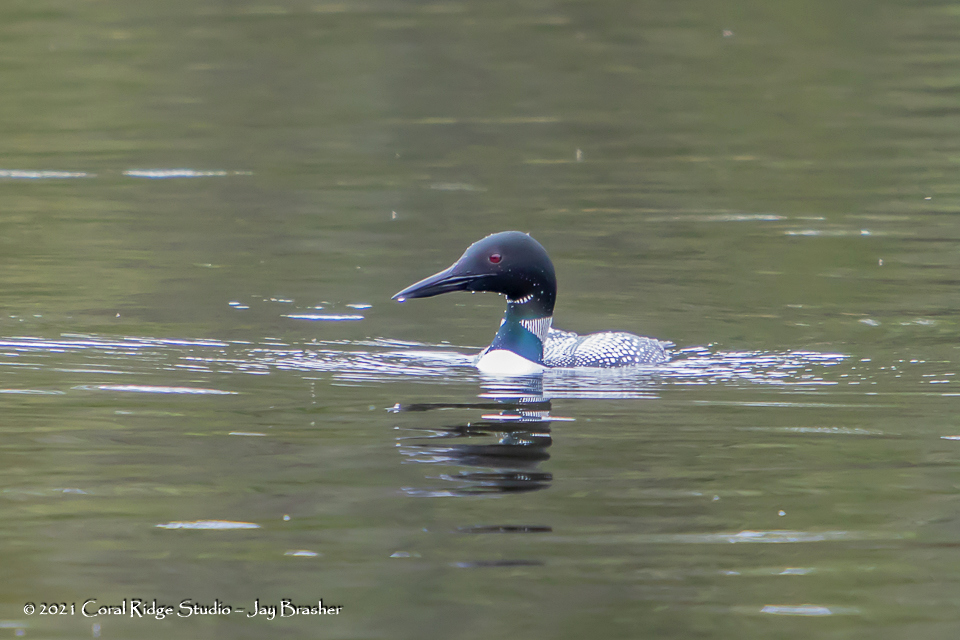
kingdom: Animalia
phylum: Chordata
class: Aves
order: Gaviiformes
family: Gaviidae
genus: Gavia
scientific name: Gavia immer
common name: Common loon
